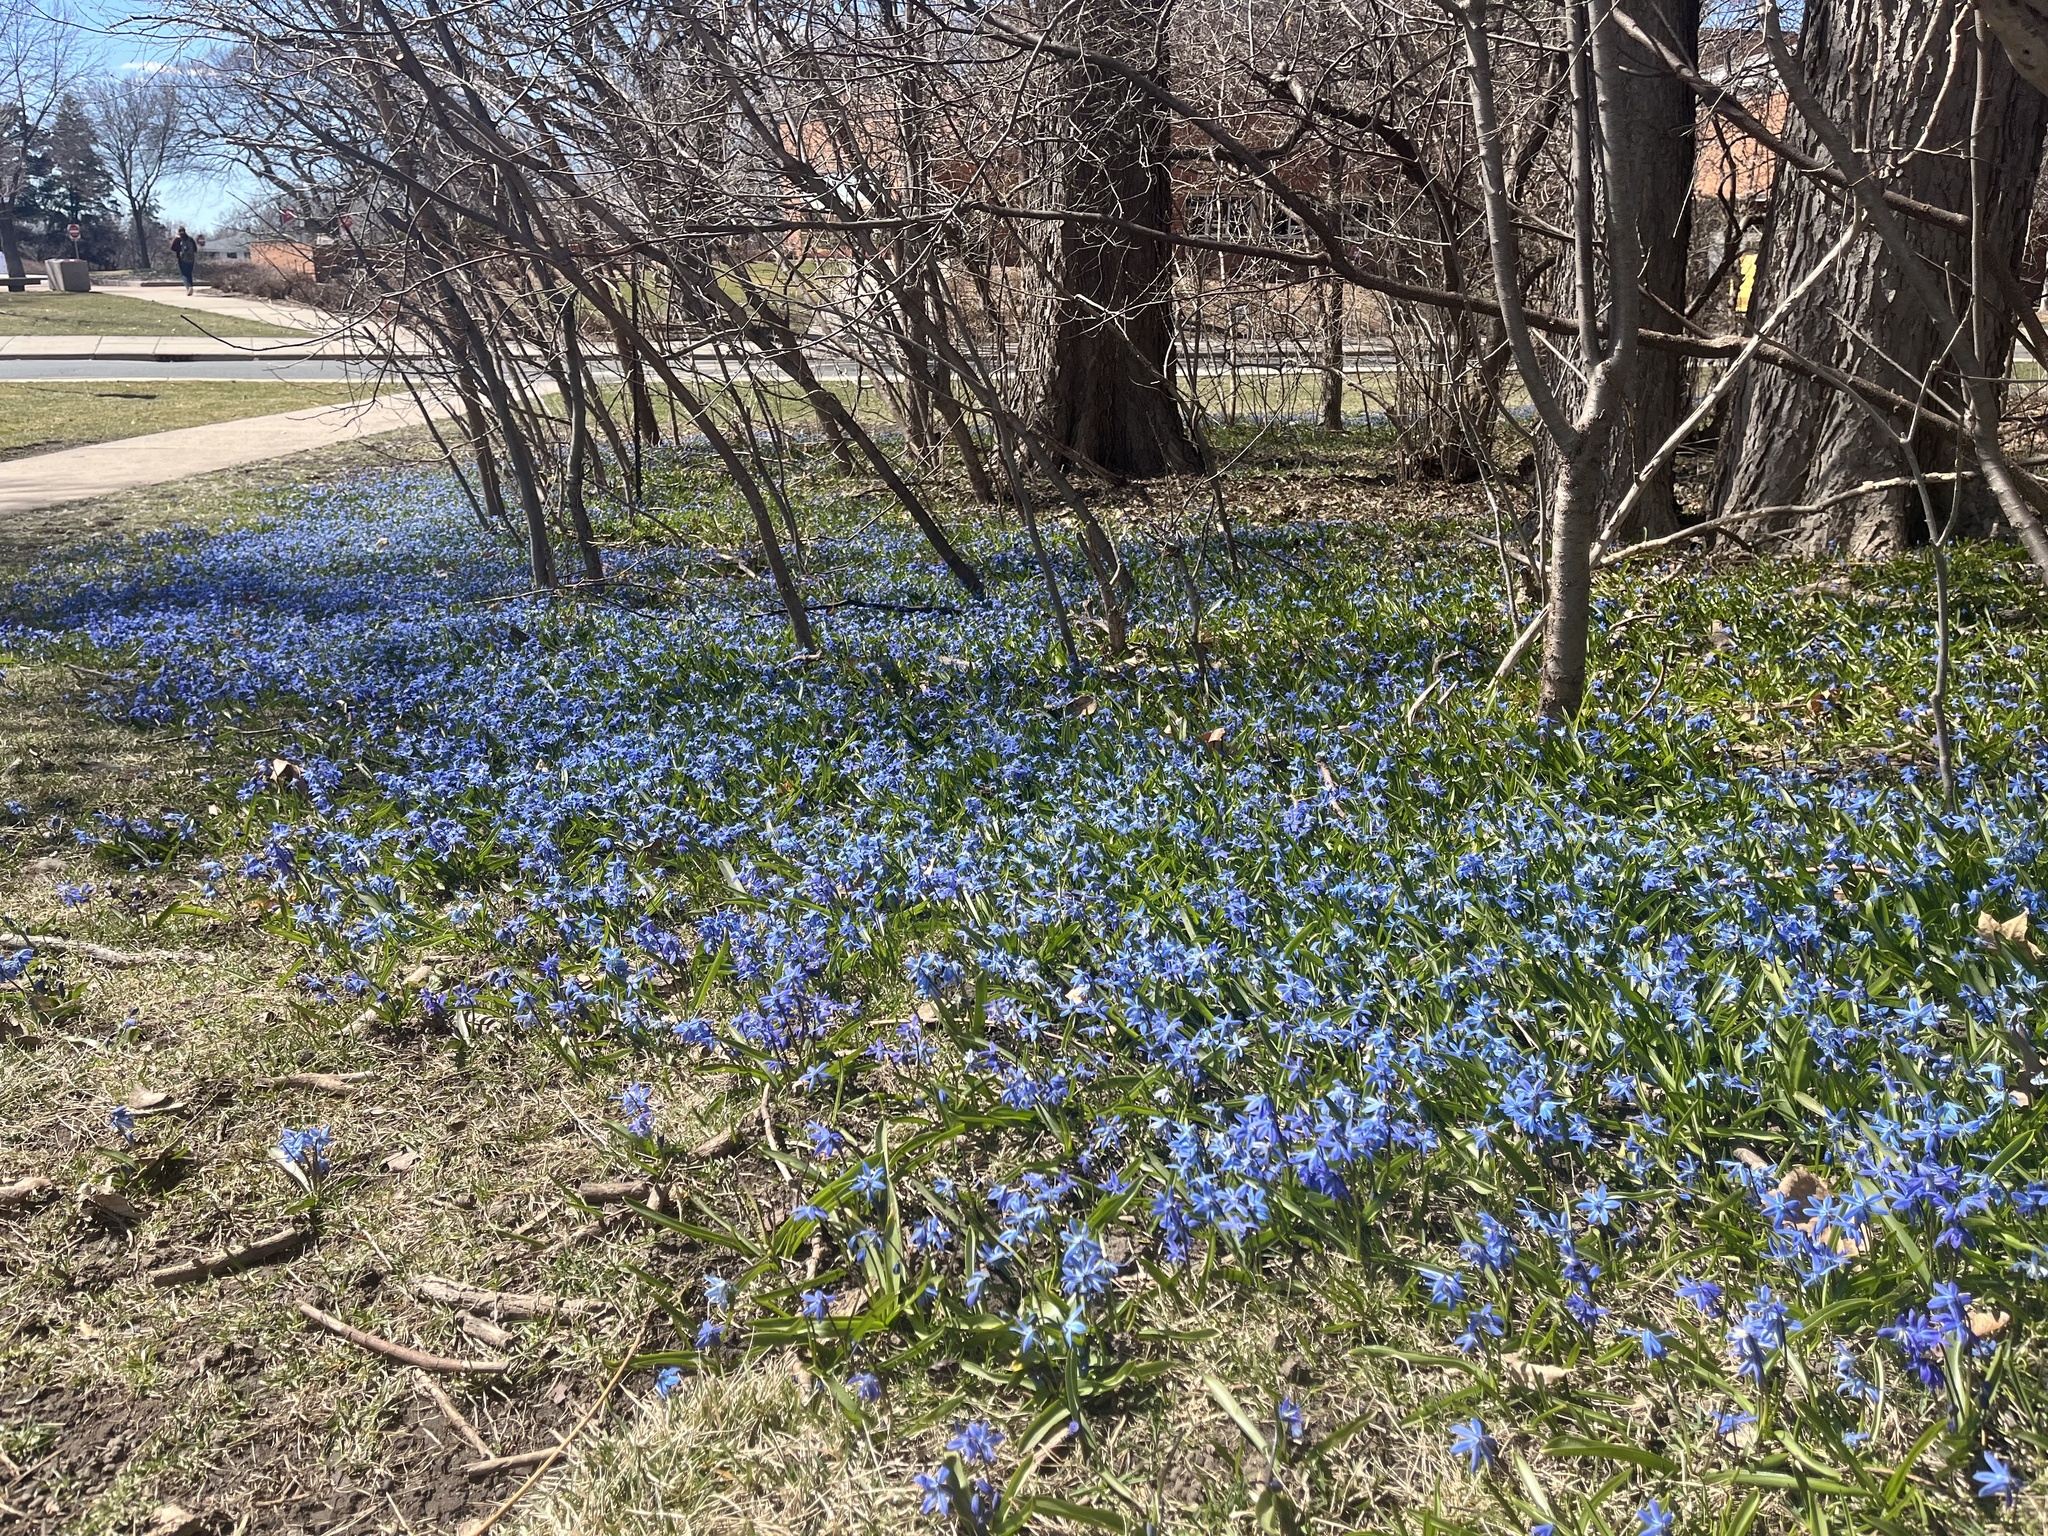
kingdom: Plantae
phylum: Tracheophyta
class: Liliopsida
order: Asparagales
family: Asparagaceae
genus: Scilla
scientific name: Scilla siberica
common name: Siberian squill
